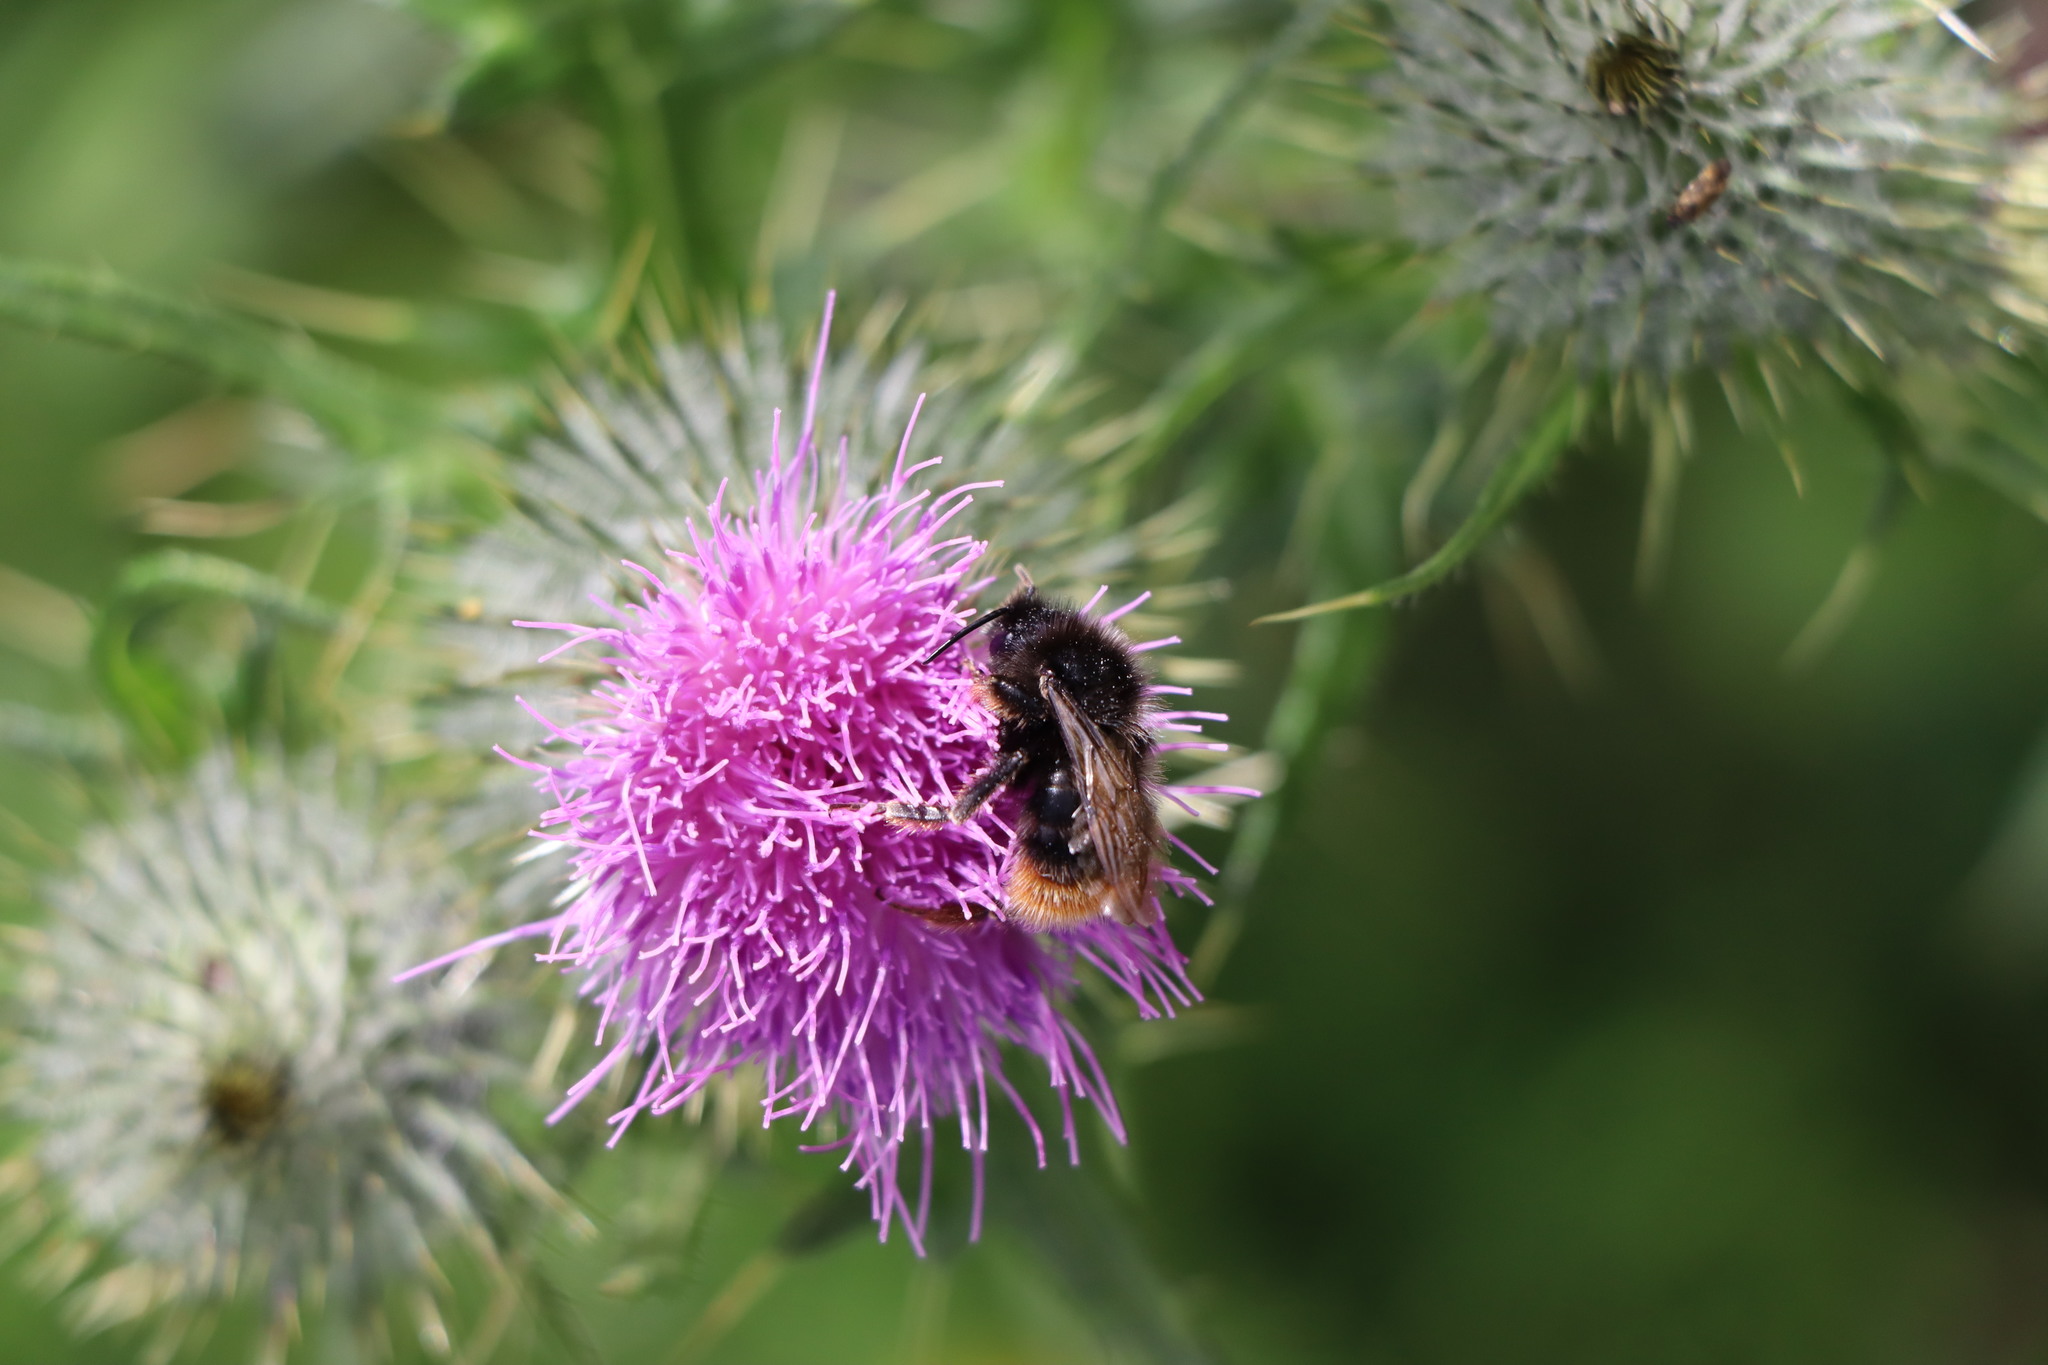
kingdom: Animalia
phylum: Arthropoda
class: Insecta
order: Hymenoptera
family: Apidae
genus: Bombus
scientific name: Bombus lapidarius
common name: Large red-tailed humble-bee
